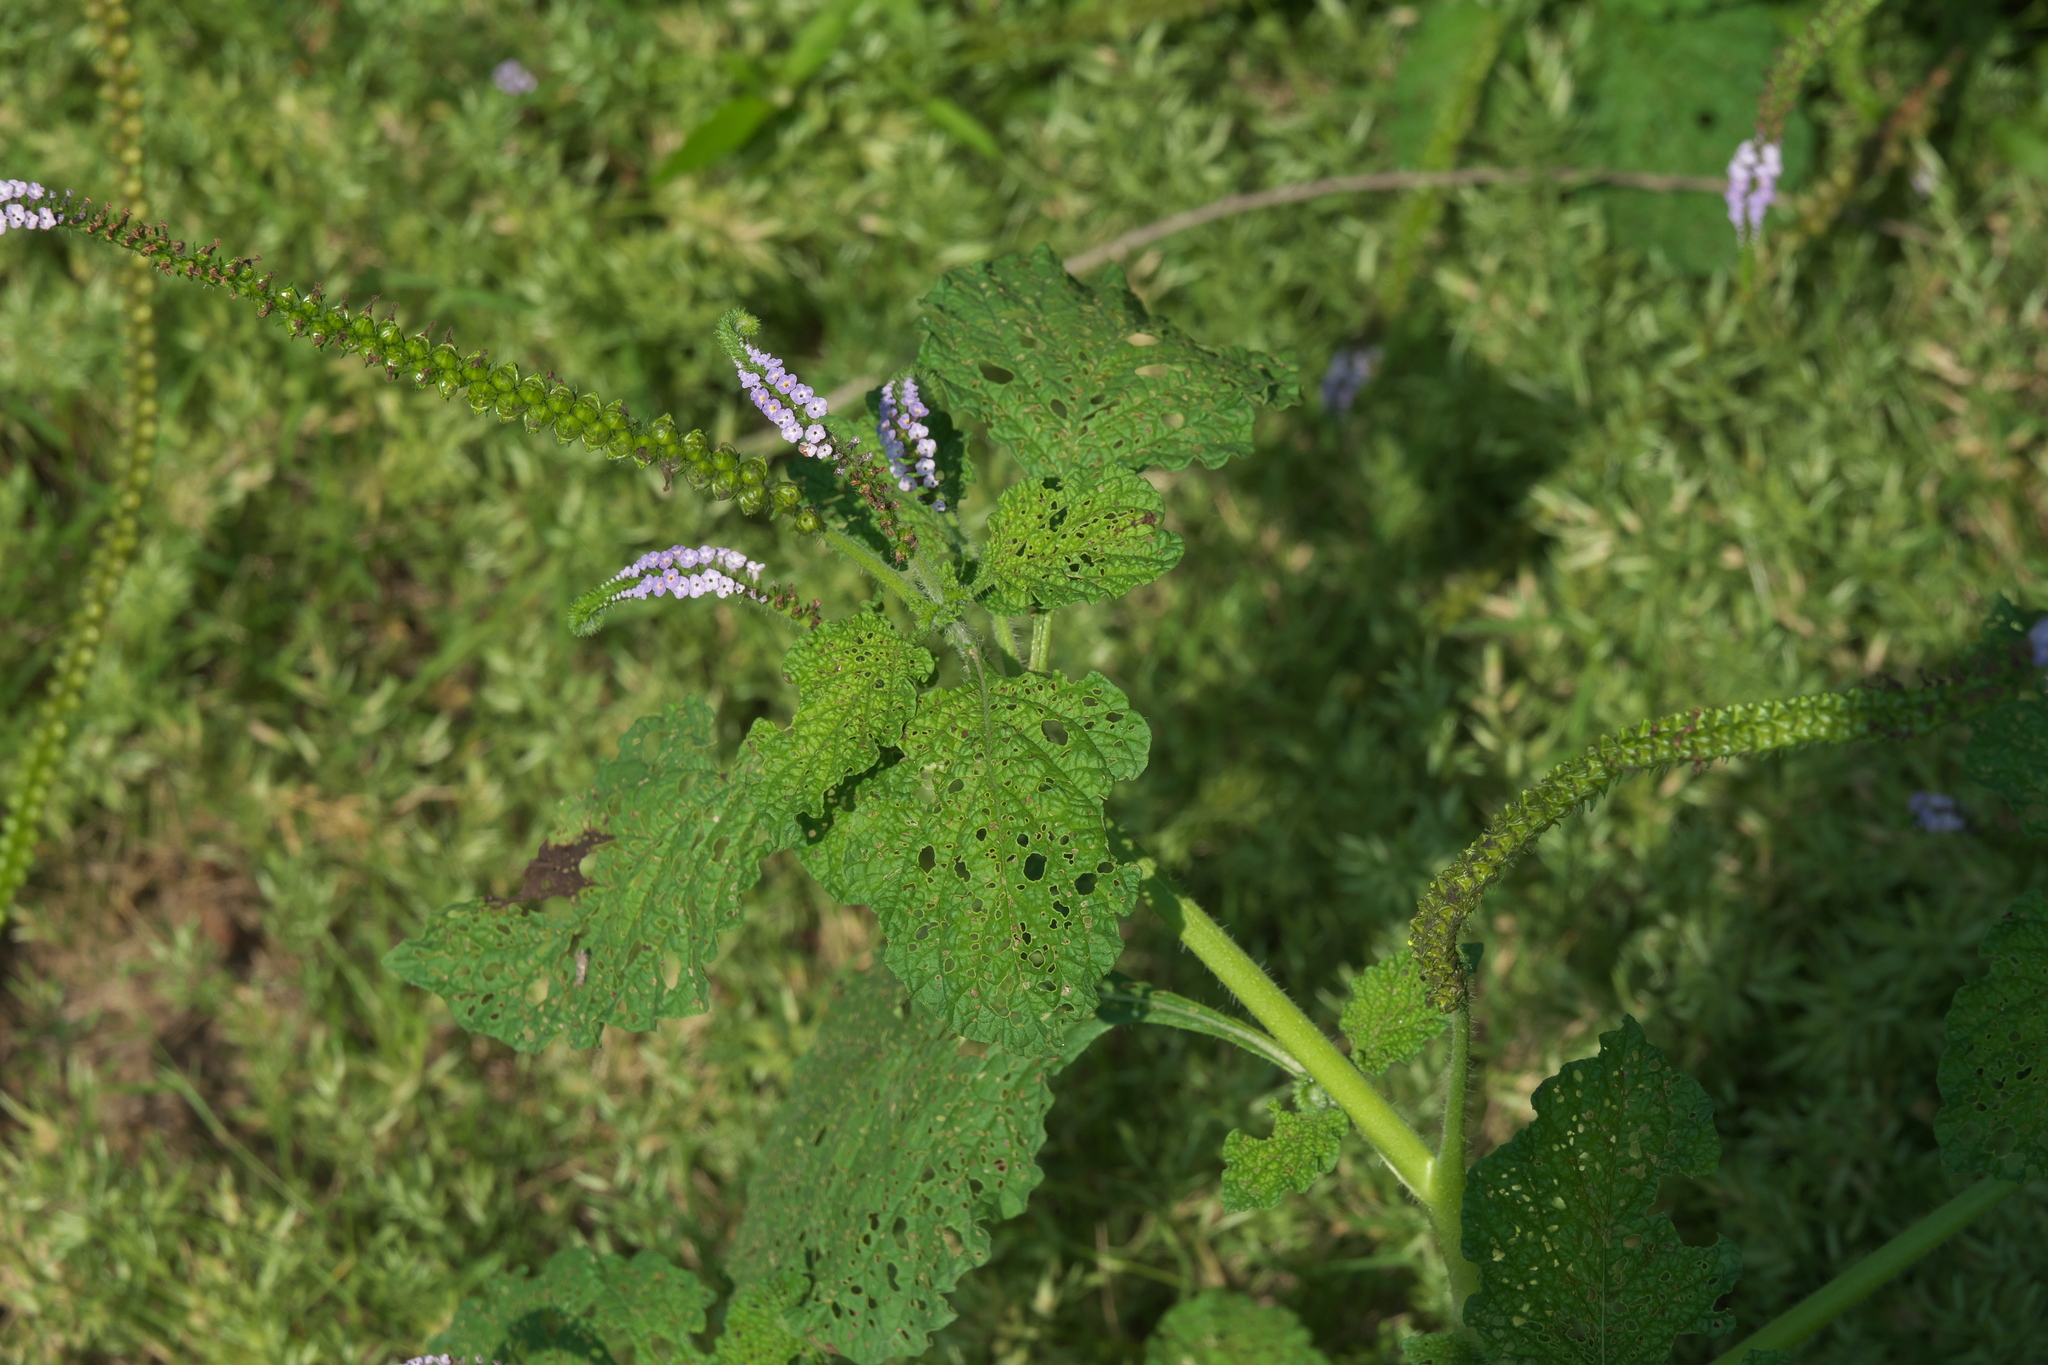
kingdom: Plantae
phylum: Tracheophyta
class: Magnoliopsida
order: Boraginales
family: Heliotropiaceae
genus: Heliotropium
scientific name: Heliotropium indicum
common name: Indian heliotrope
